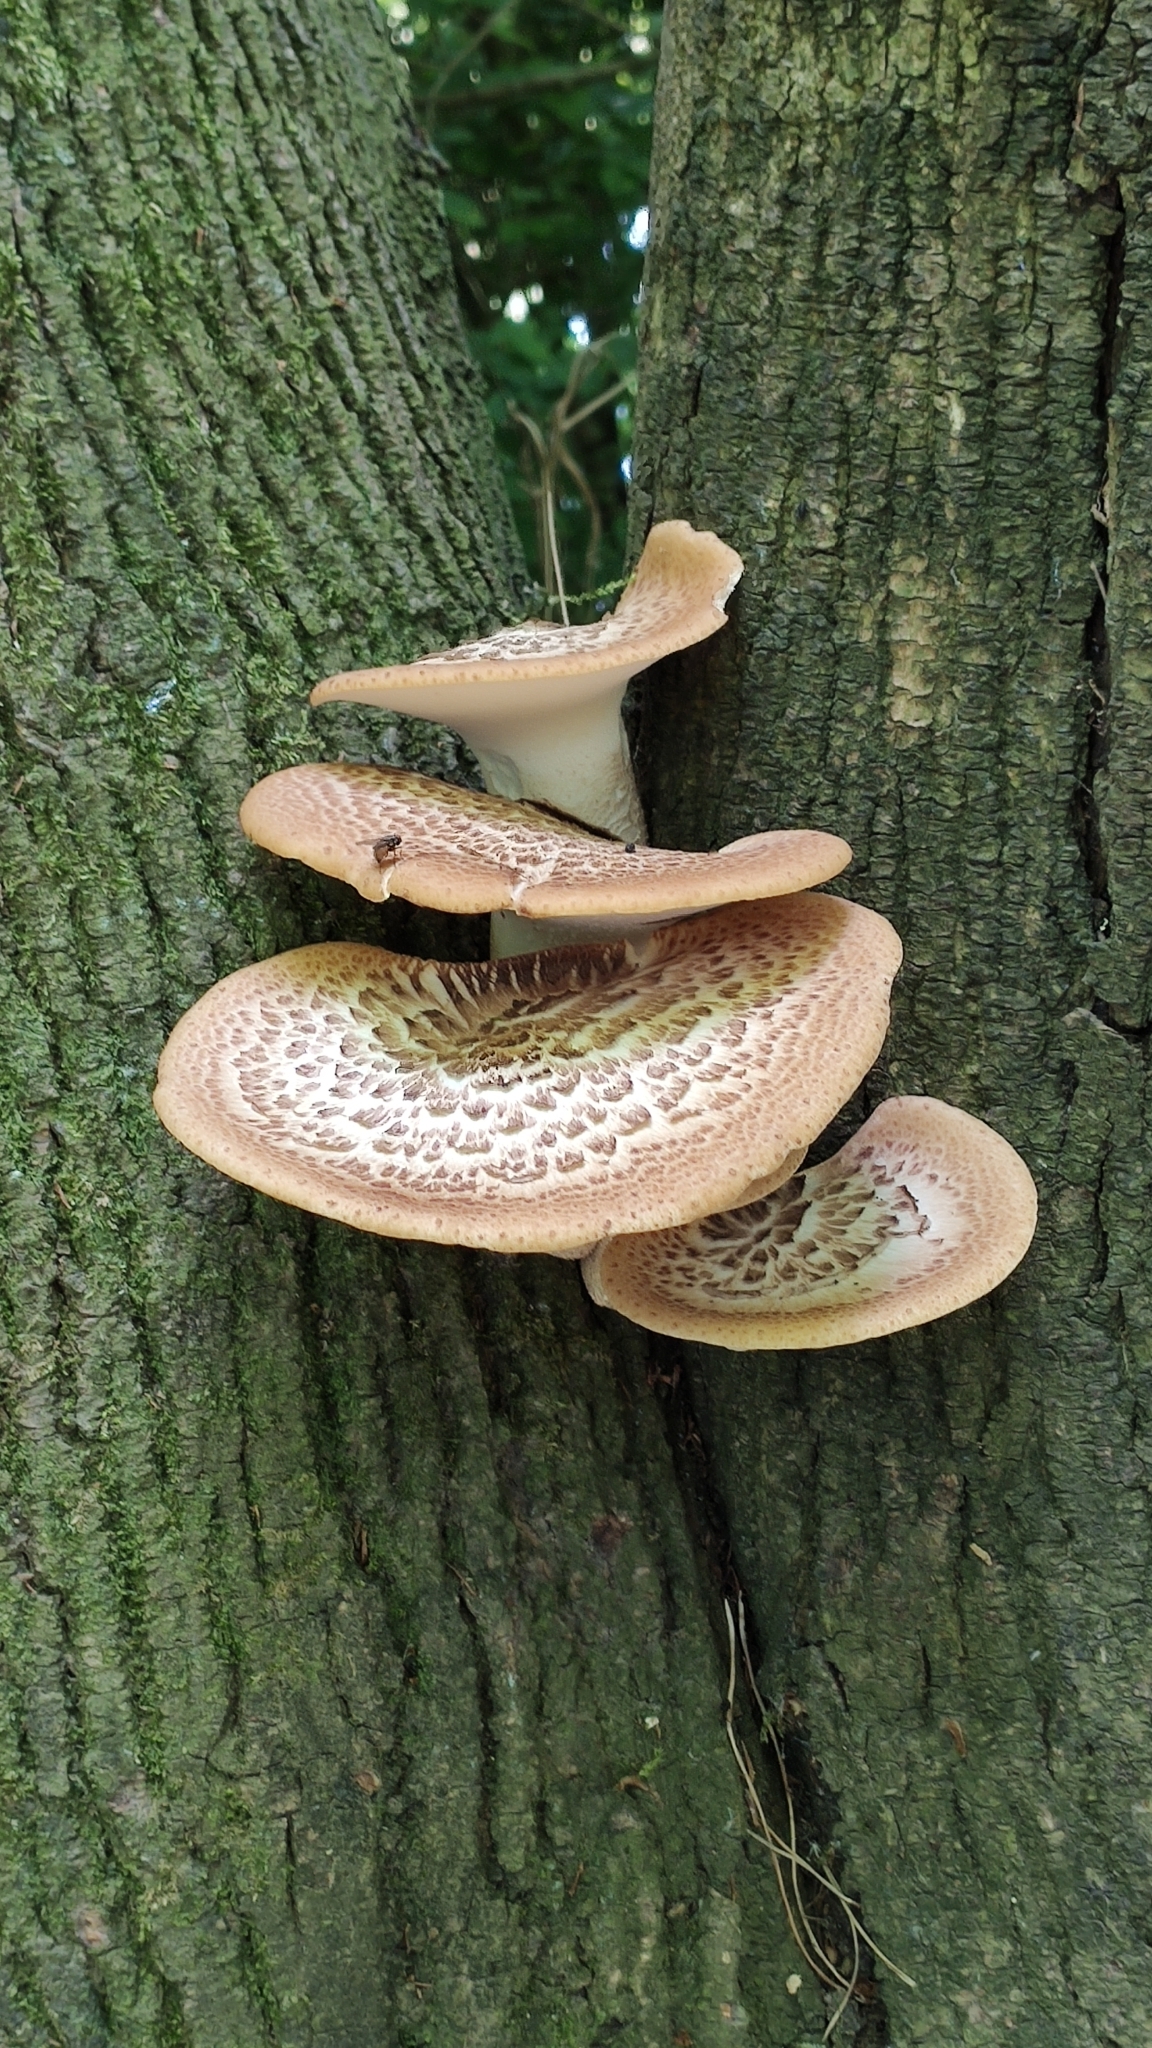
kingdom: Fungi
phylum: Basidiomycota
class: Agaricomycetes
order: Polyporales
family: Polyporaceae
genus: Cerioporus
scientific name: Cerioporus squamosus
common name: Dryad's saddle
